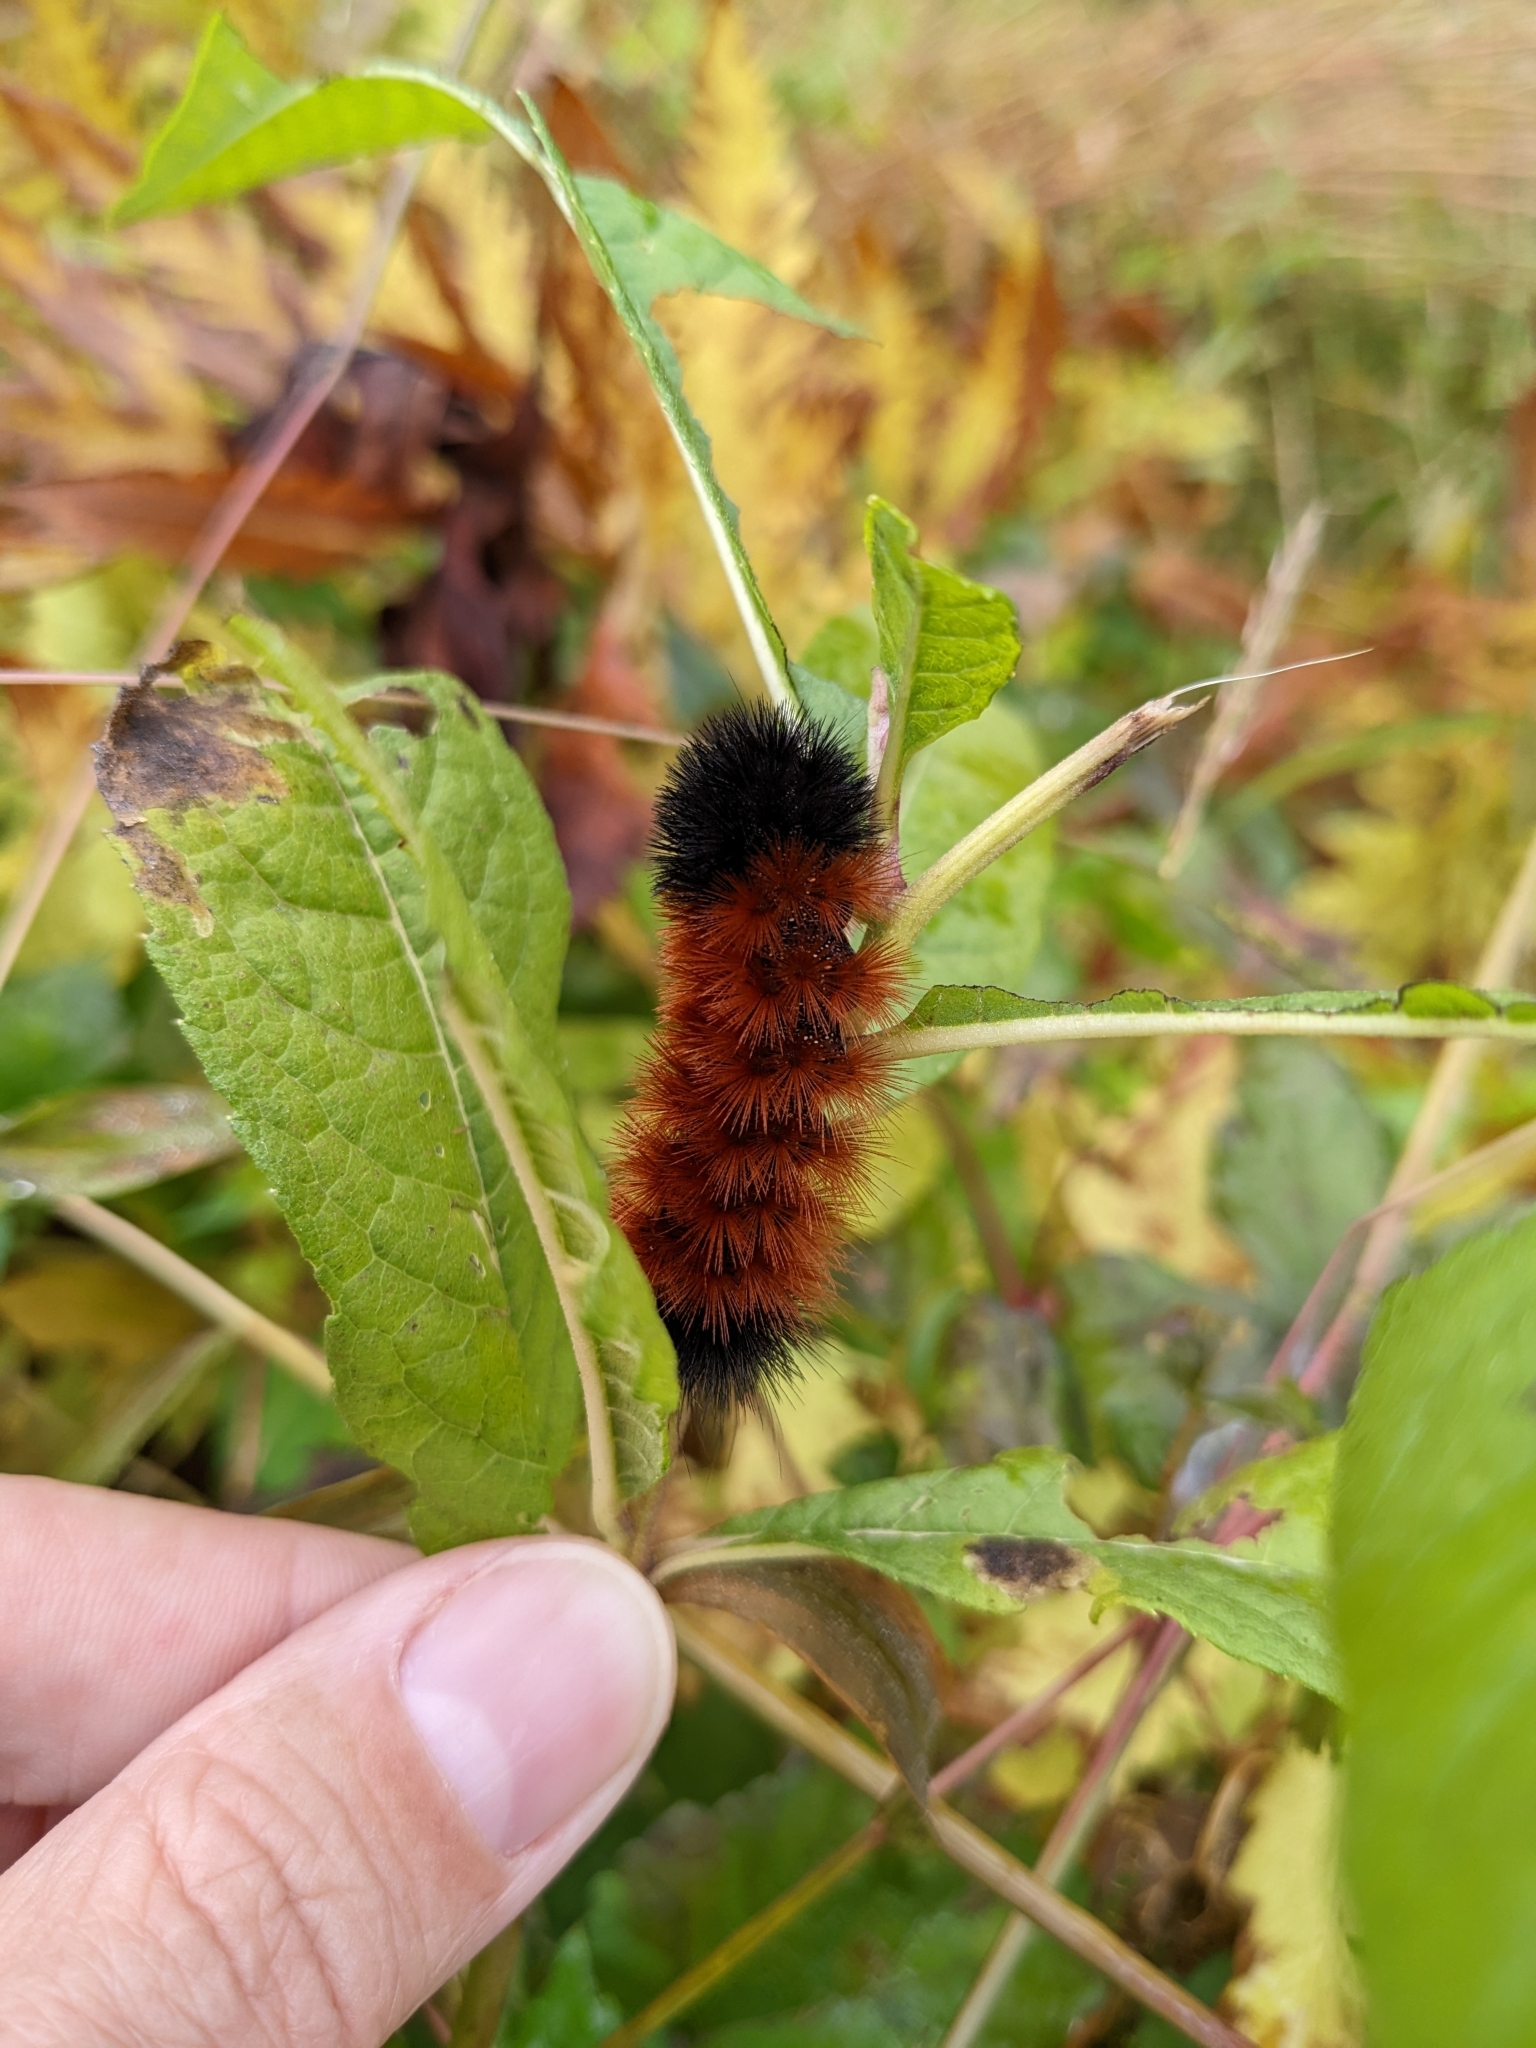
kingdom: Animalia
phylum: Arthropoda
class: Insecta
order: Lepidoptera
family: Erebidae
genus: Pyrrharctia
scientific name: Pyrrharctia isabella
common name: Isabella tiger moth
